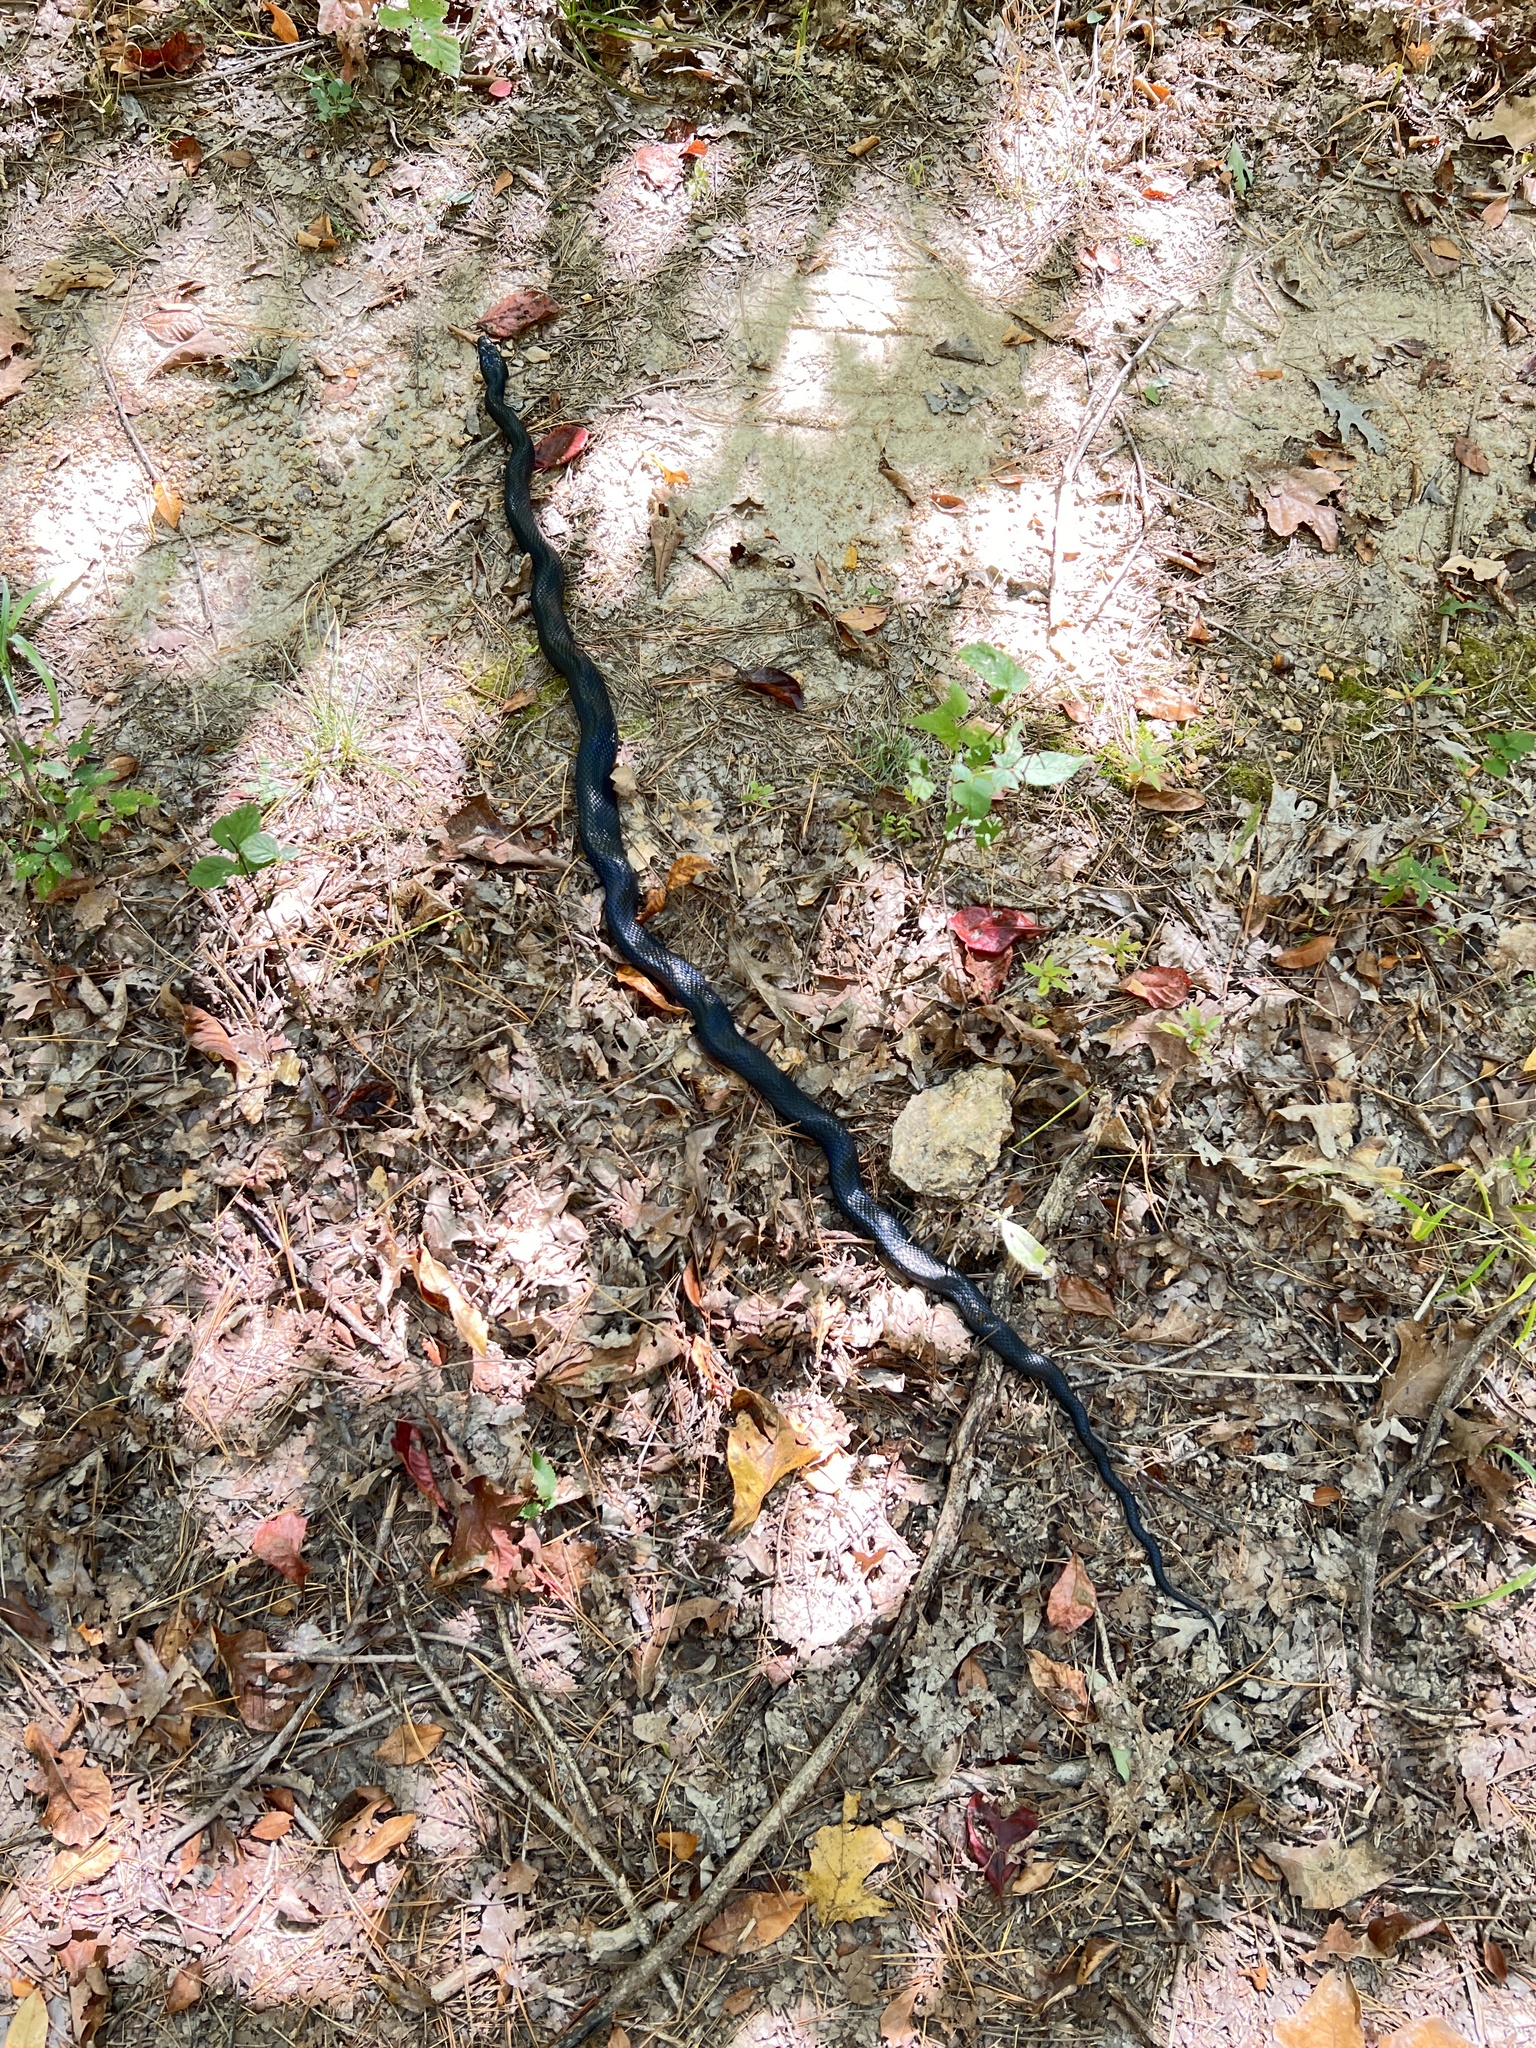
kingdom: Animalia
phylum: Chordata
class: Squamata
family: Colubridae
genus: Pantherophis
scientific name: Pantherophis obsoletus
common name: Black rat snake
